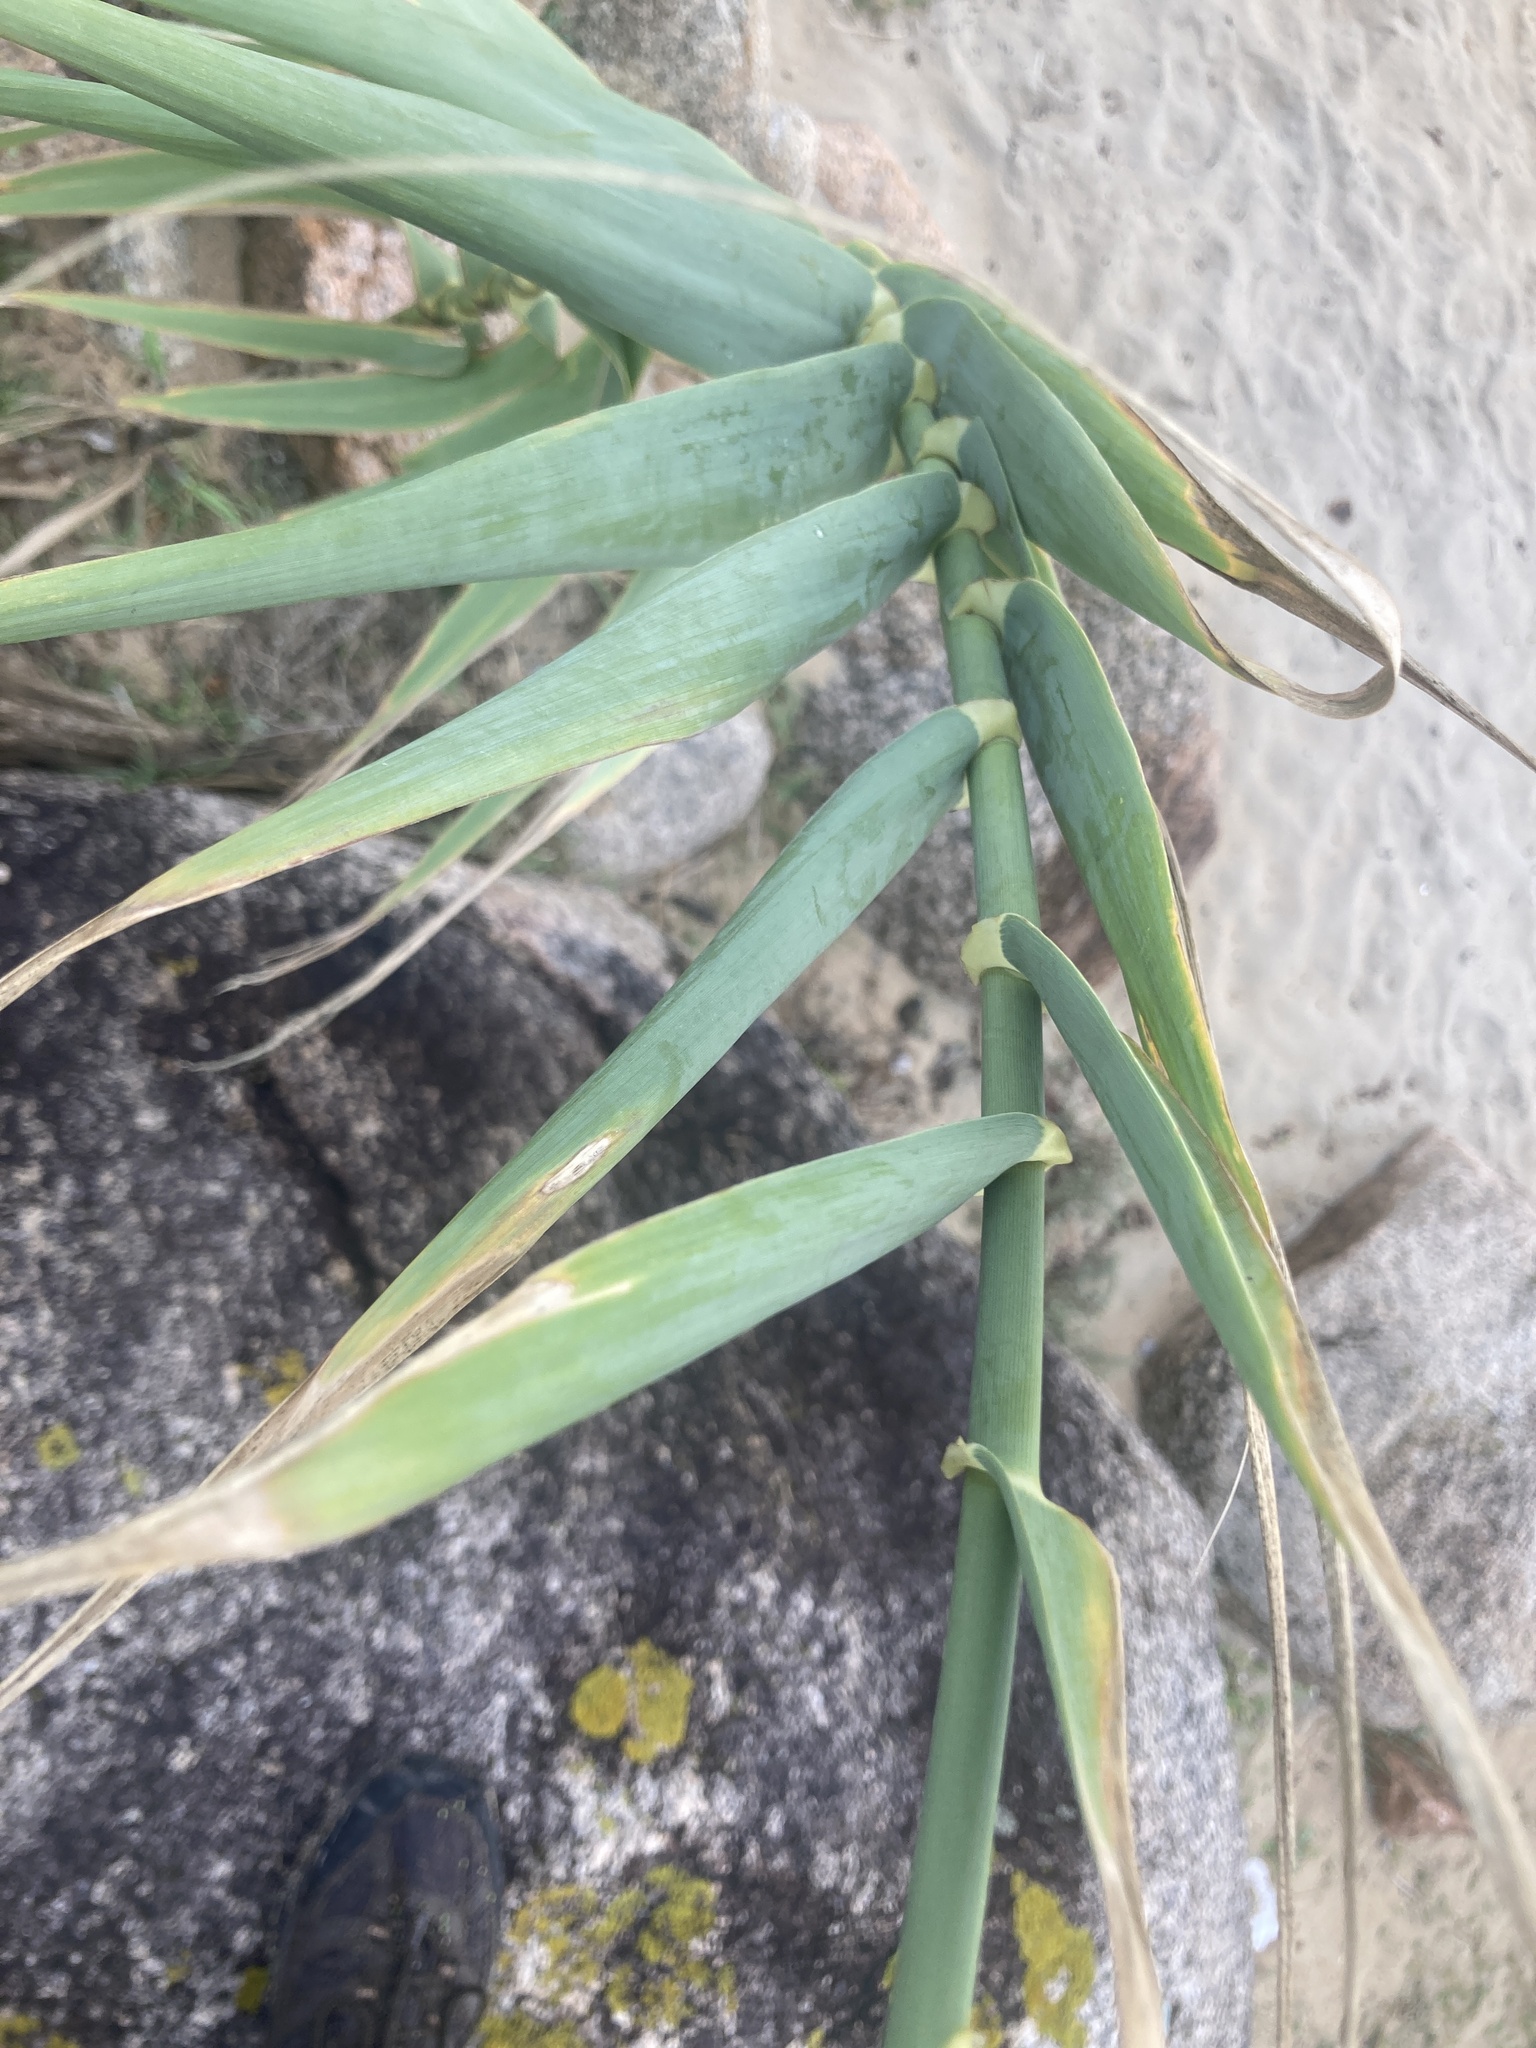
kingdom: Plantae
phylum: Tracheophyta
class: Liliopsida
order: Poales
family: Poaceae
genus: Arundo
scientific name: Arundo donax
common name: Giant reed
